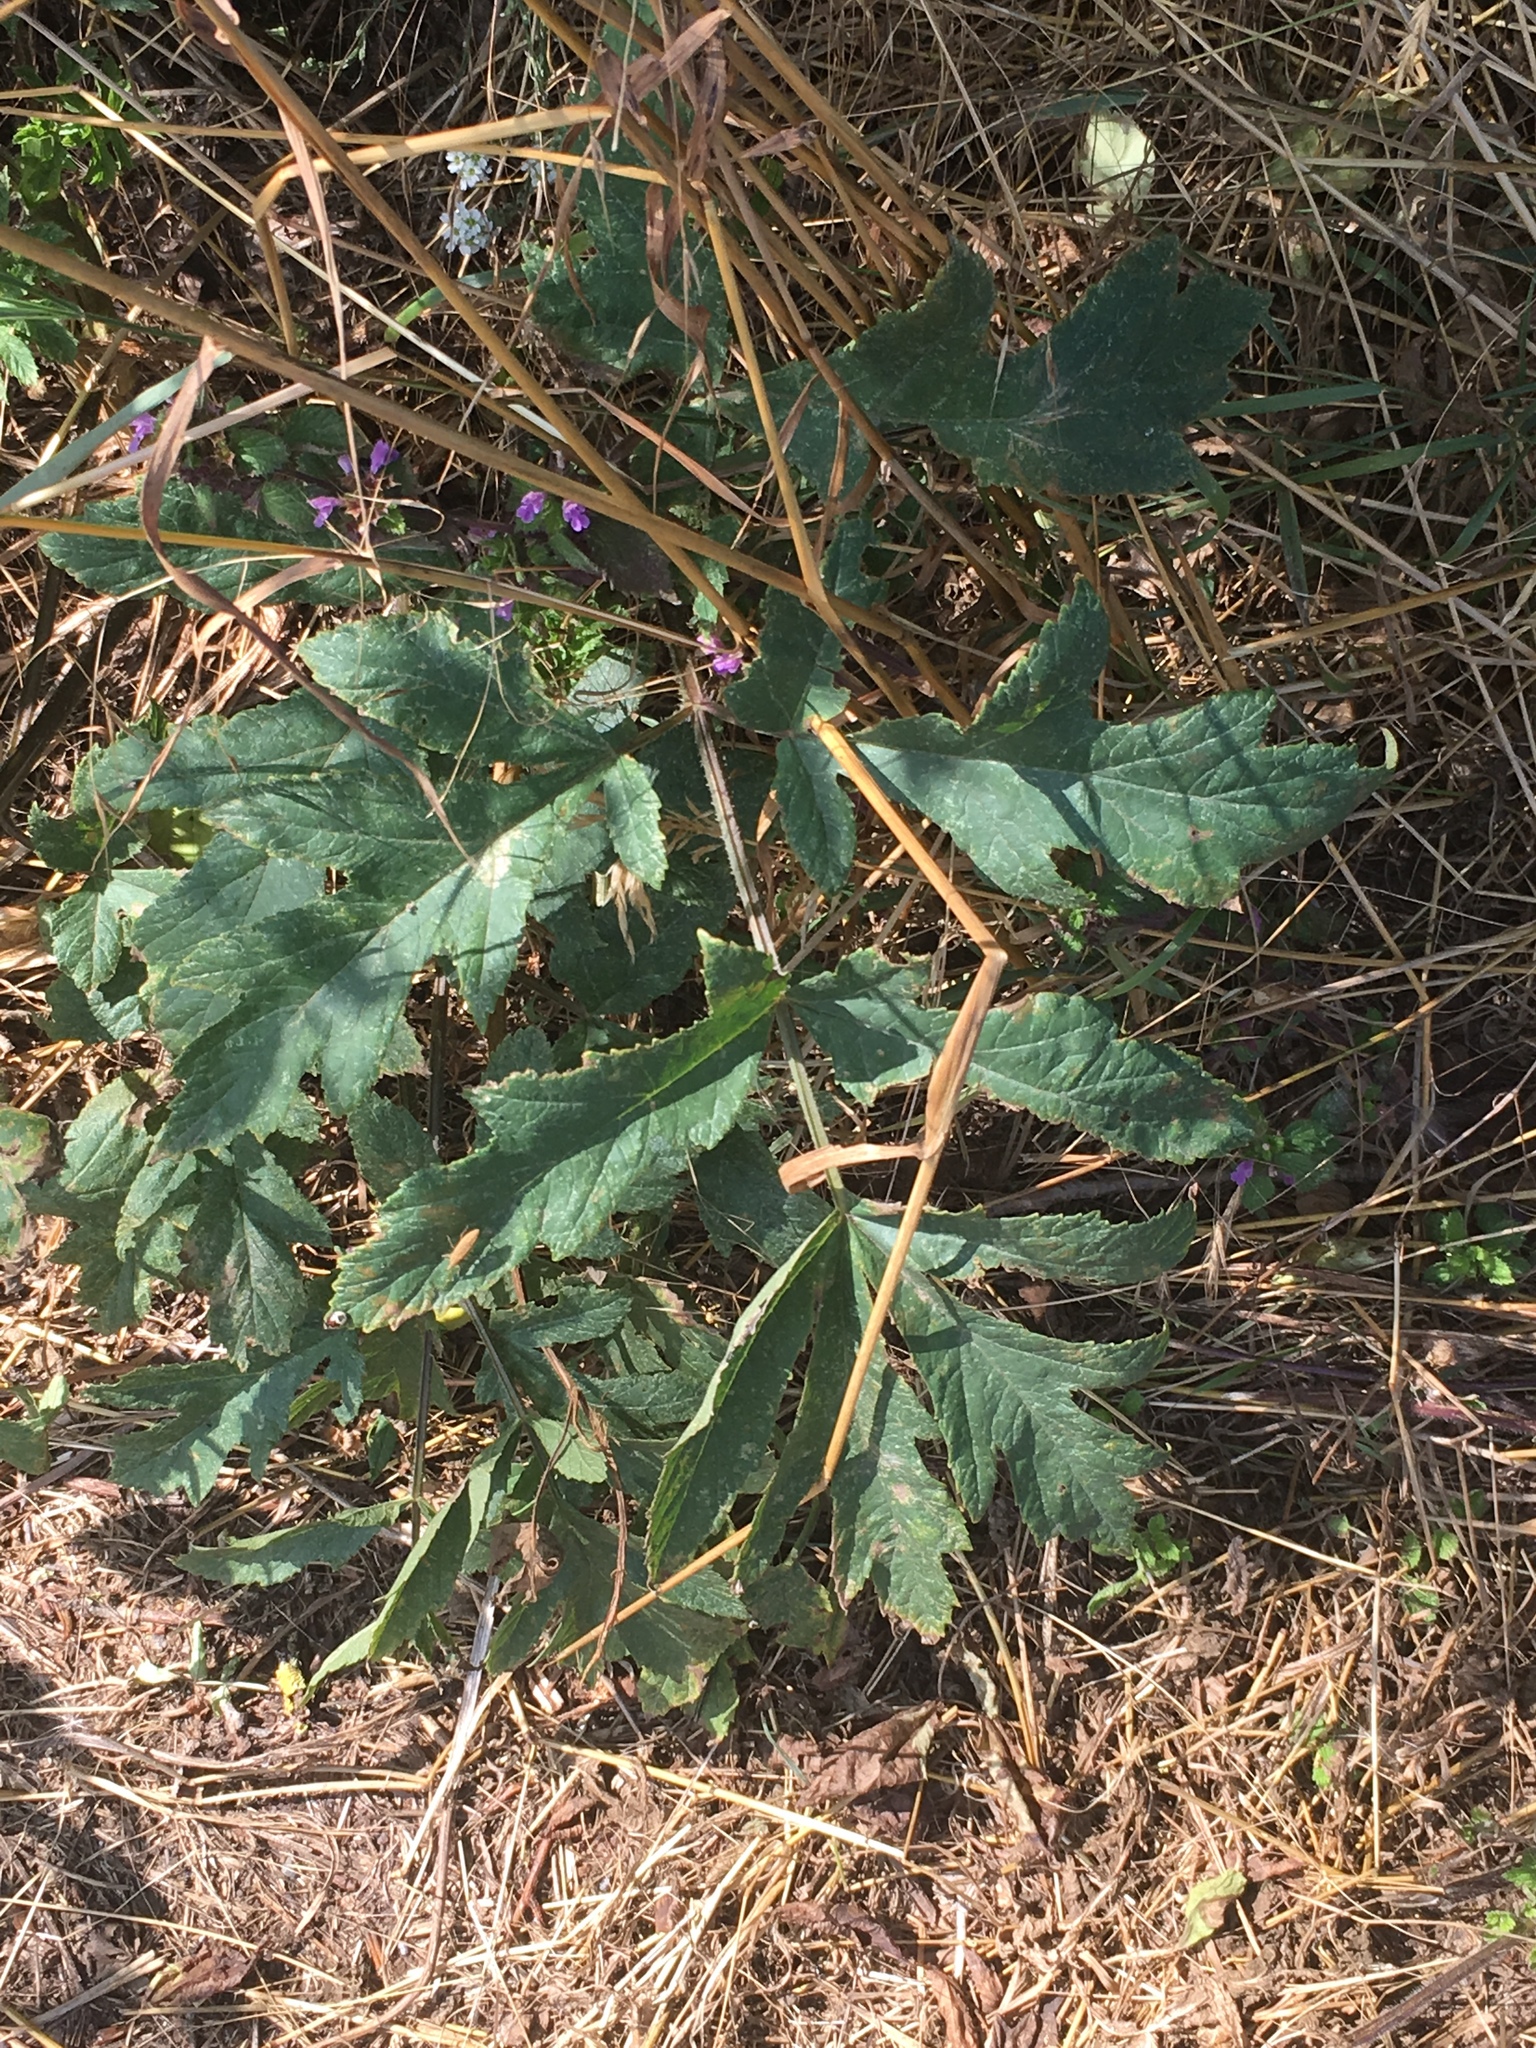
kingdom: Plantae
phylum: Tracheophyta
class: Magnoliopsida
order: Apiales
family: Apiaceae
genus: Heracleum
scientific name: Heracleum sphondylium
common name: Hogweed
